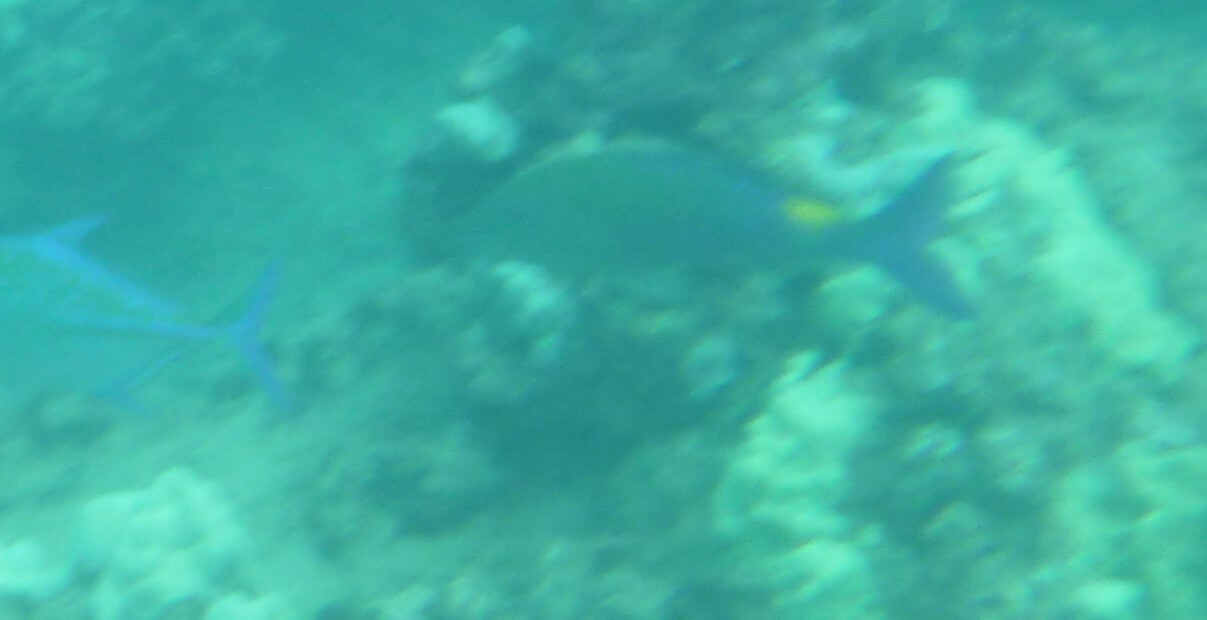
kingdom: Animalia
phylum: Chordata
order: Perciformes
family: Mullidae
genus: Parupeneus
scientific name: Parupeneus cyclostomus
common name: Goldsaddle goatfish
